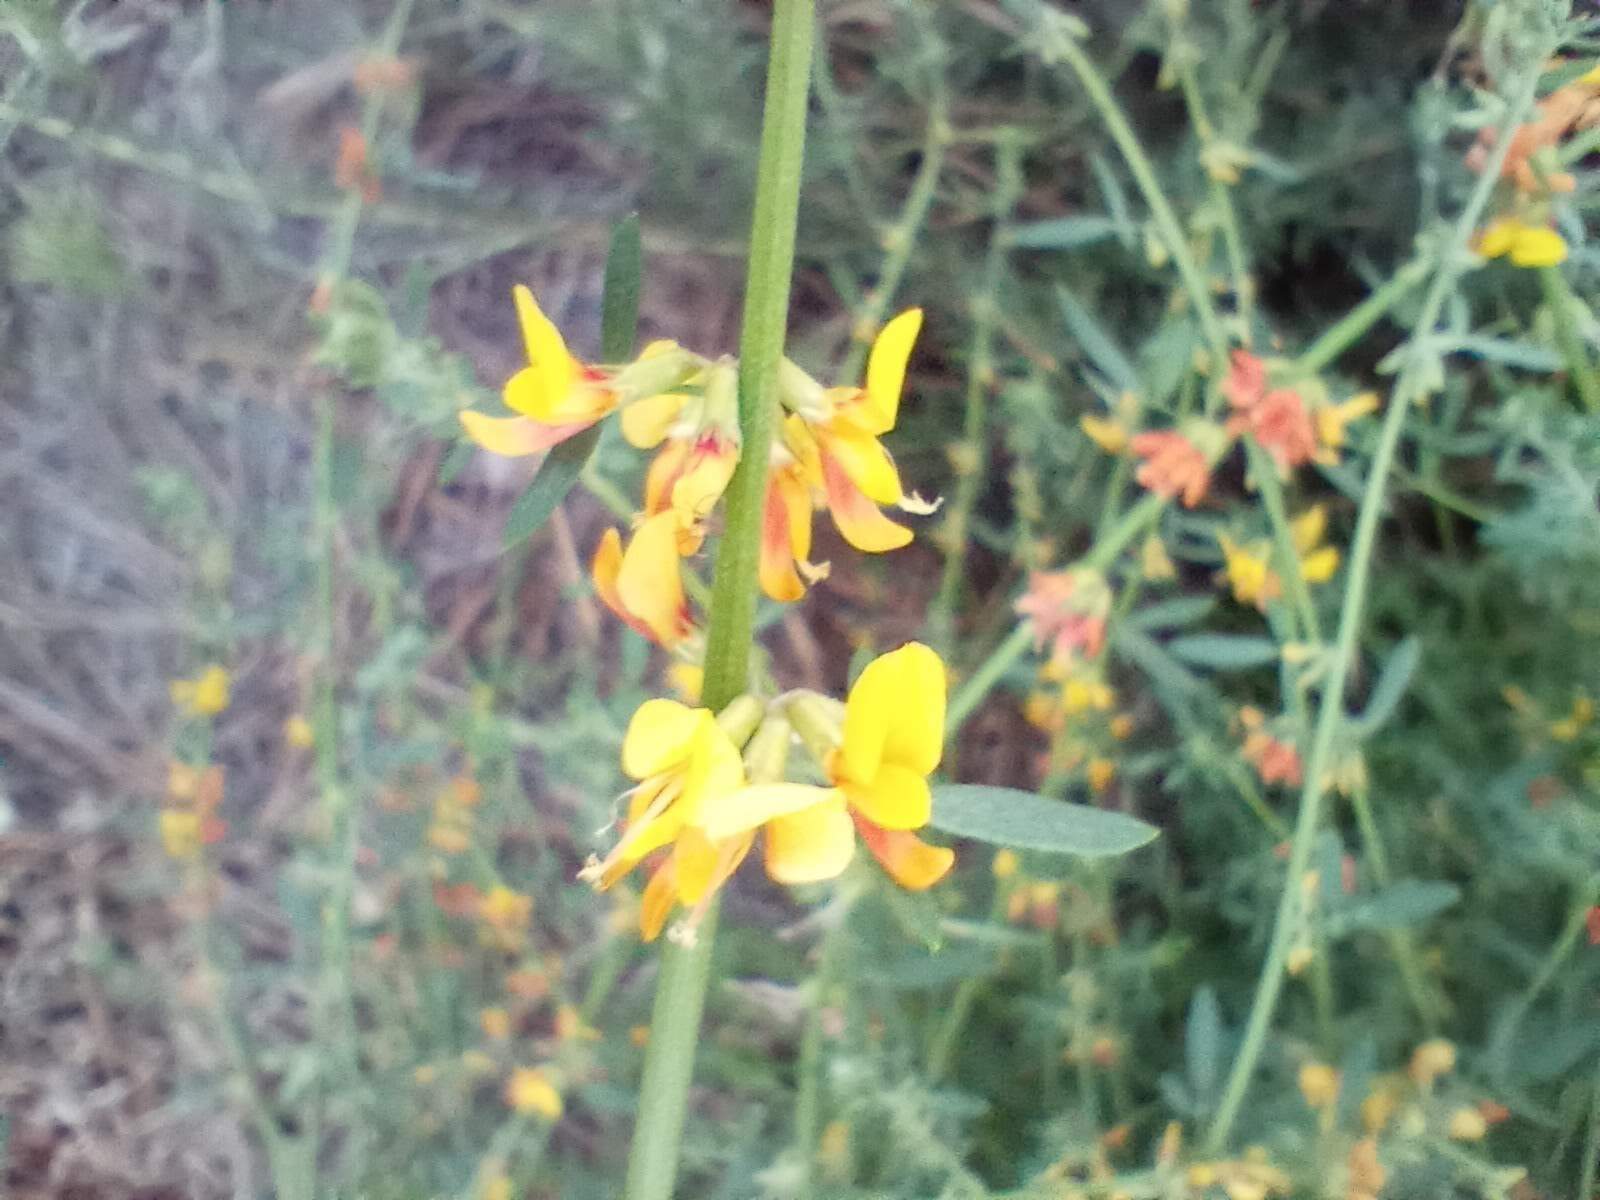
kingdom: Plantae
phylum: Tracheophyta
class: Magnoliopsida
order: Fabales
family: Fabaceae
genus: Acmispon
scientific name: Acmispon glaber
